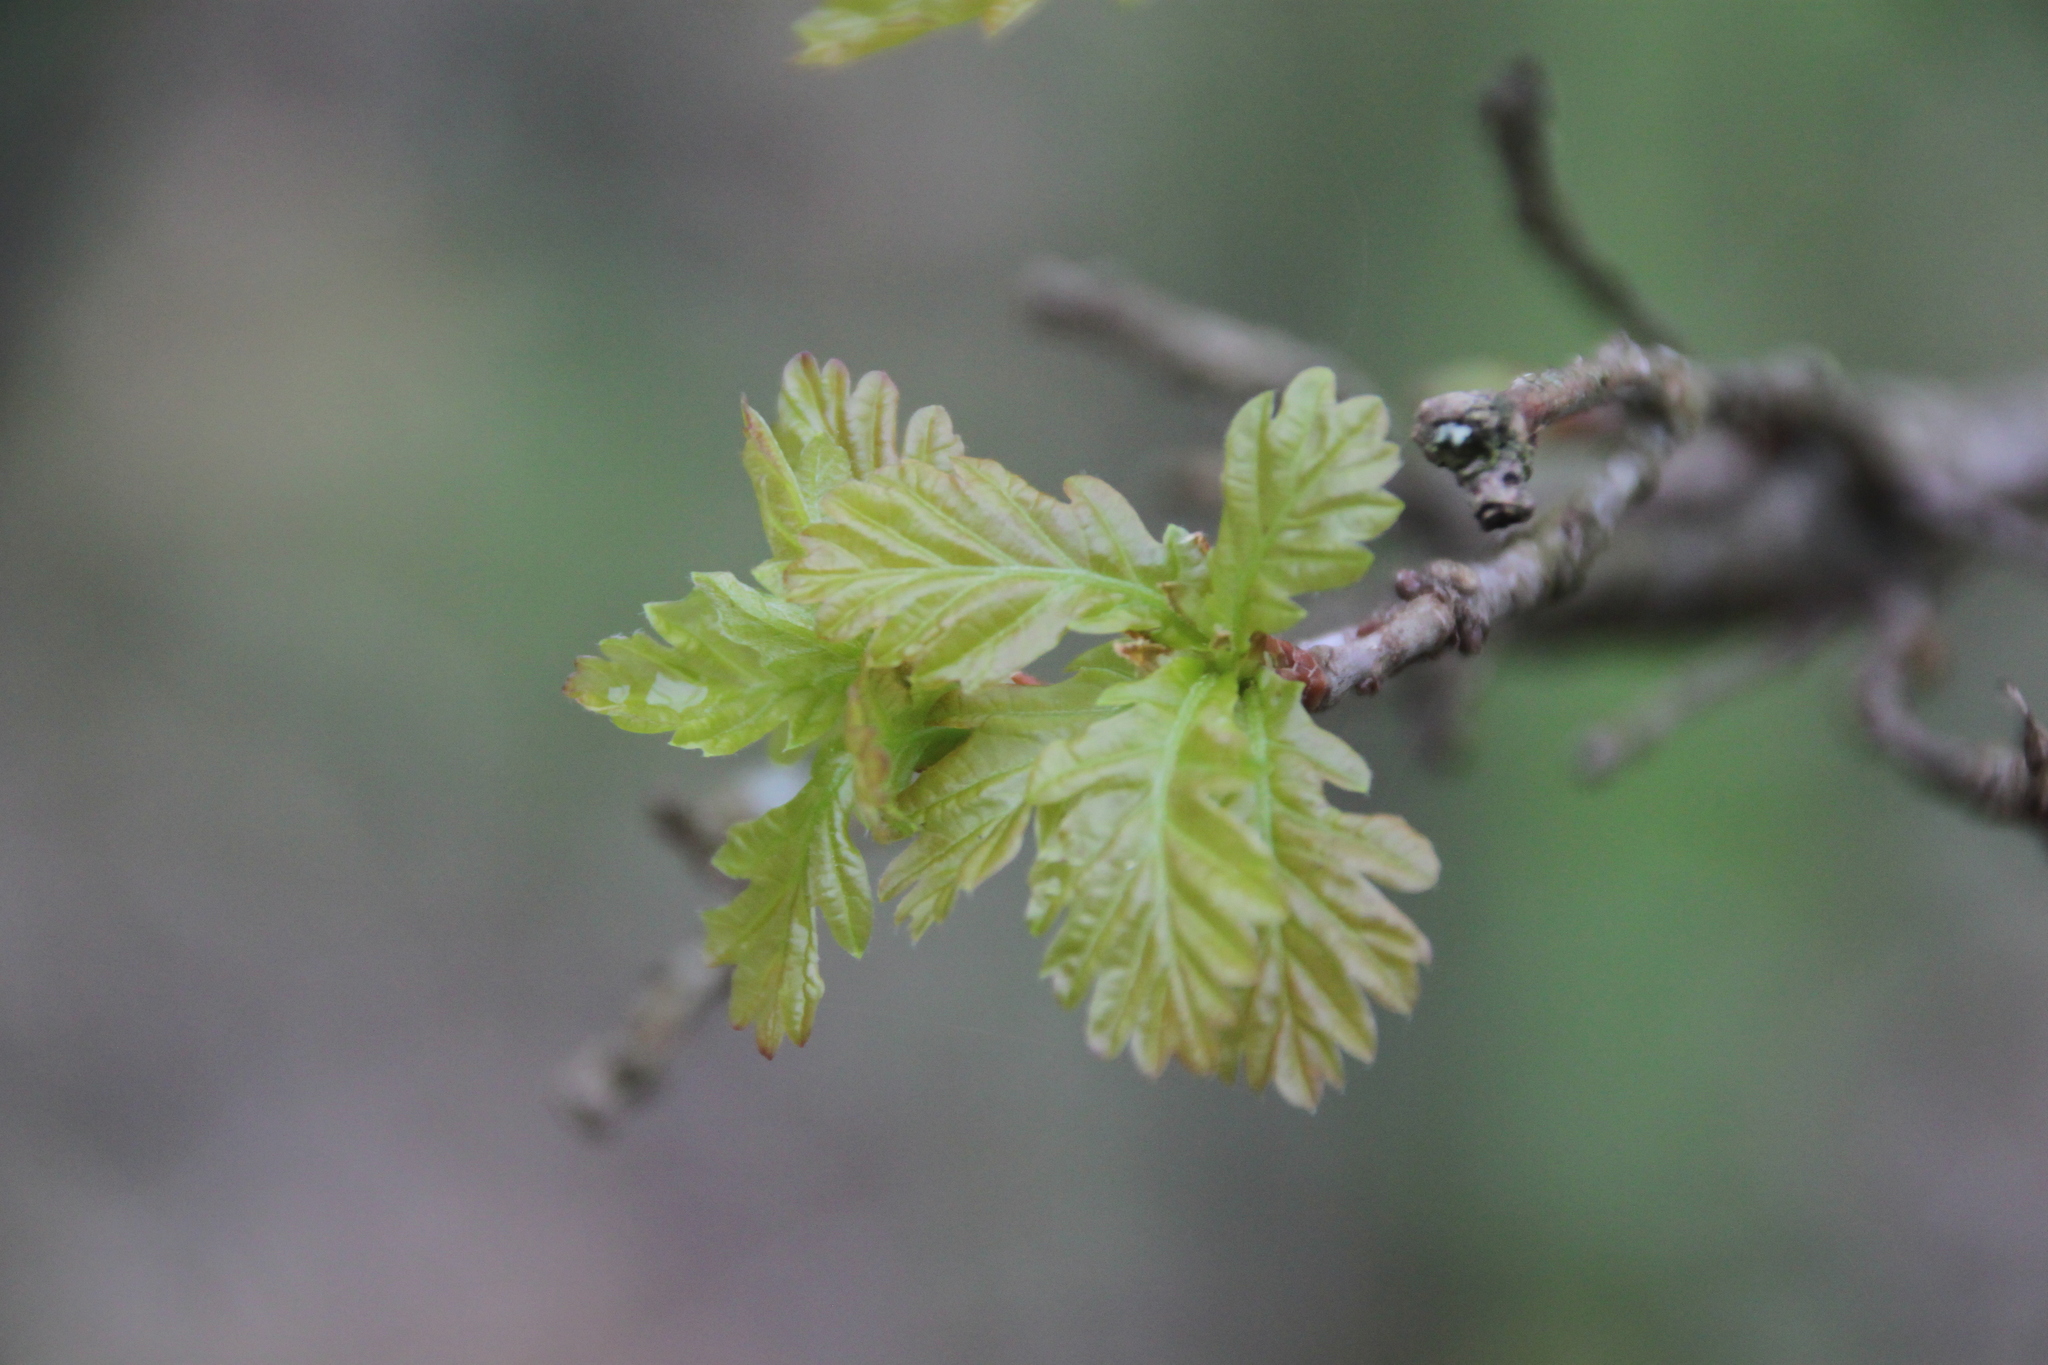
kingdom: Plantae
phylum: Tracheophyta
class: Magnoliopsida
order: Fagales
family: Fagaceae
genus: Quercus
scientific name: Quercus robur
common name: Pedunculate oak
